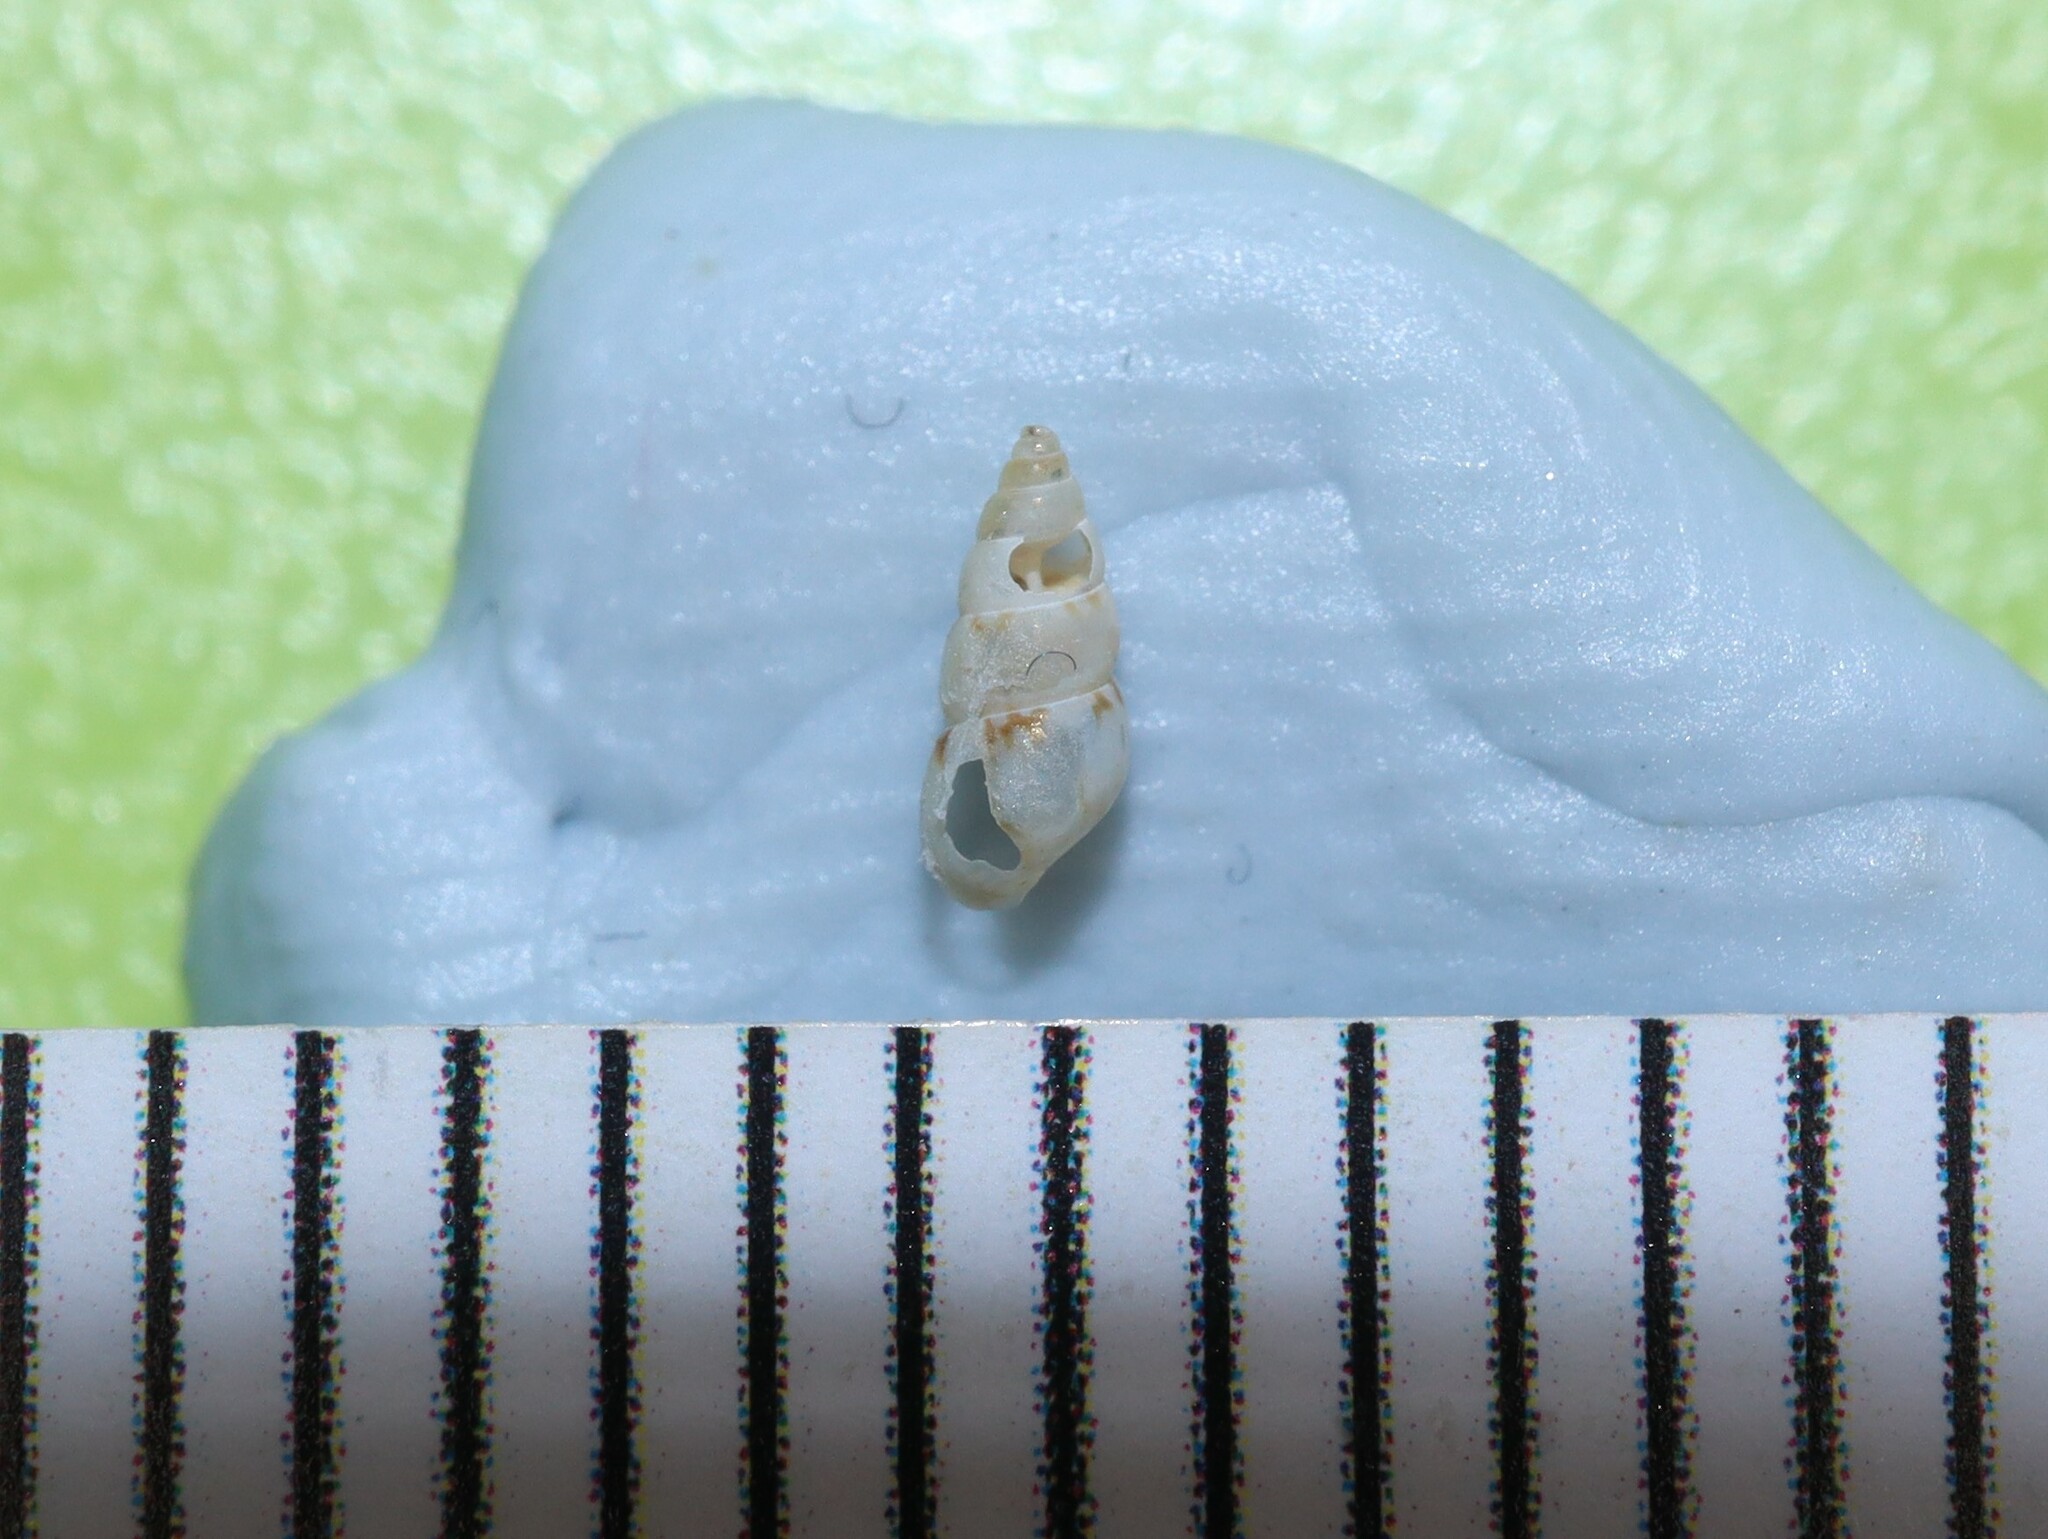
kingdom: Animalia
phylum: Mollusca
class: Gastropoda
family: Litiopidae
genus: Diffalaba
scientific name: Diffalaba opiniosa
